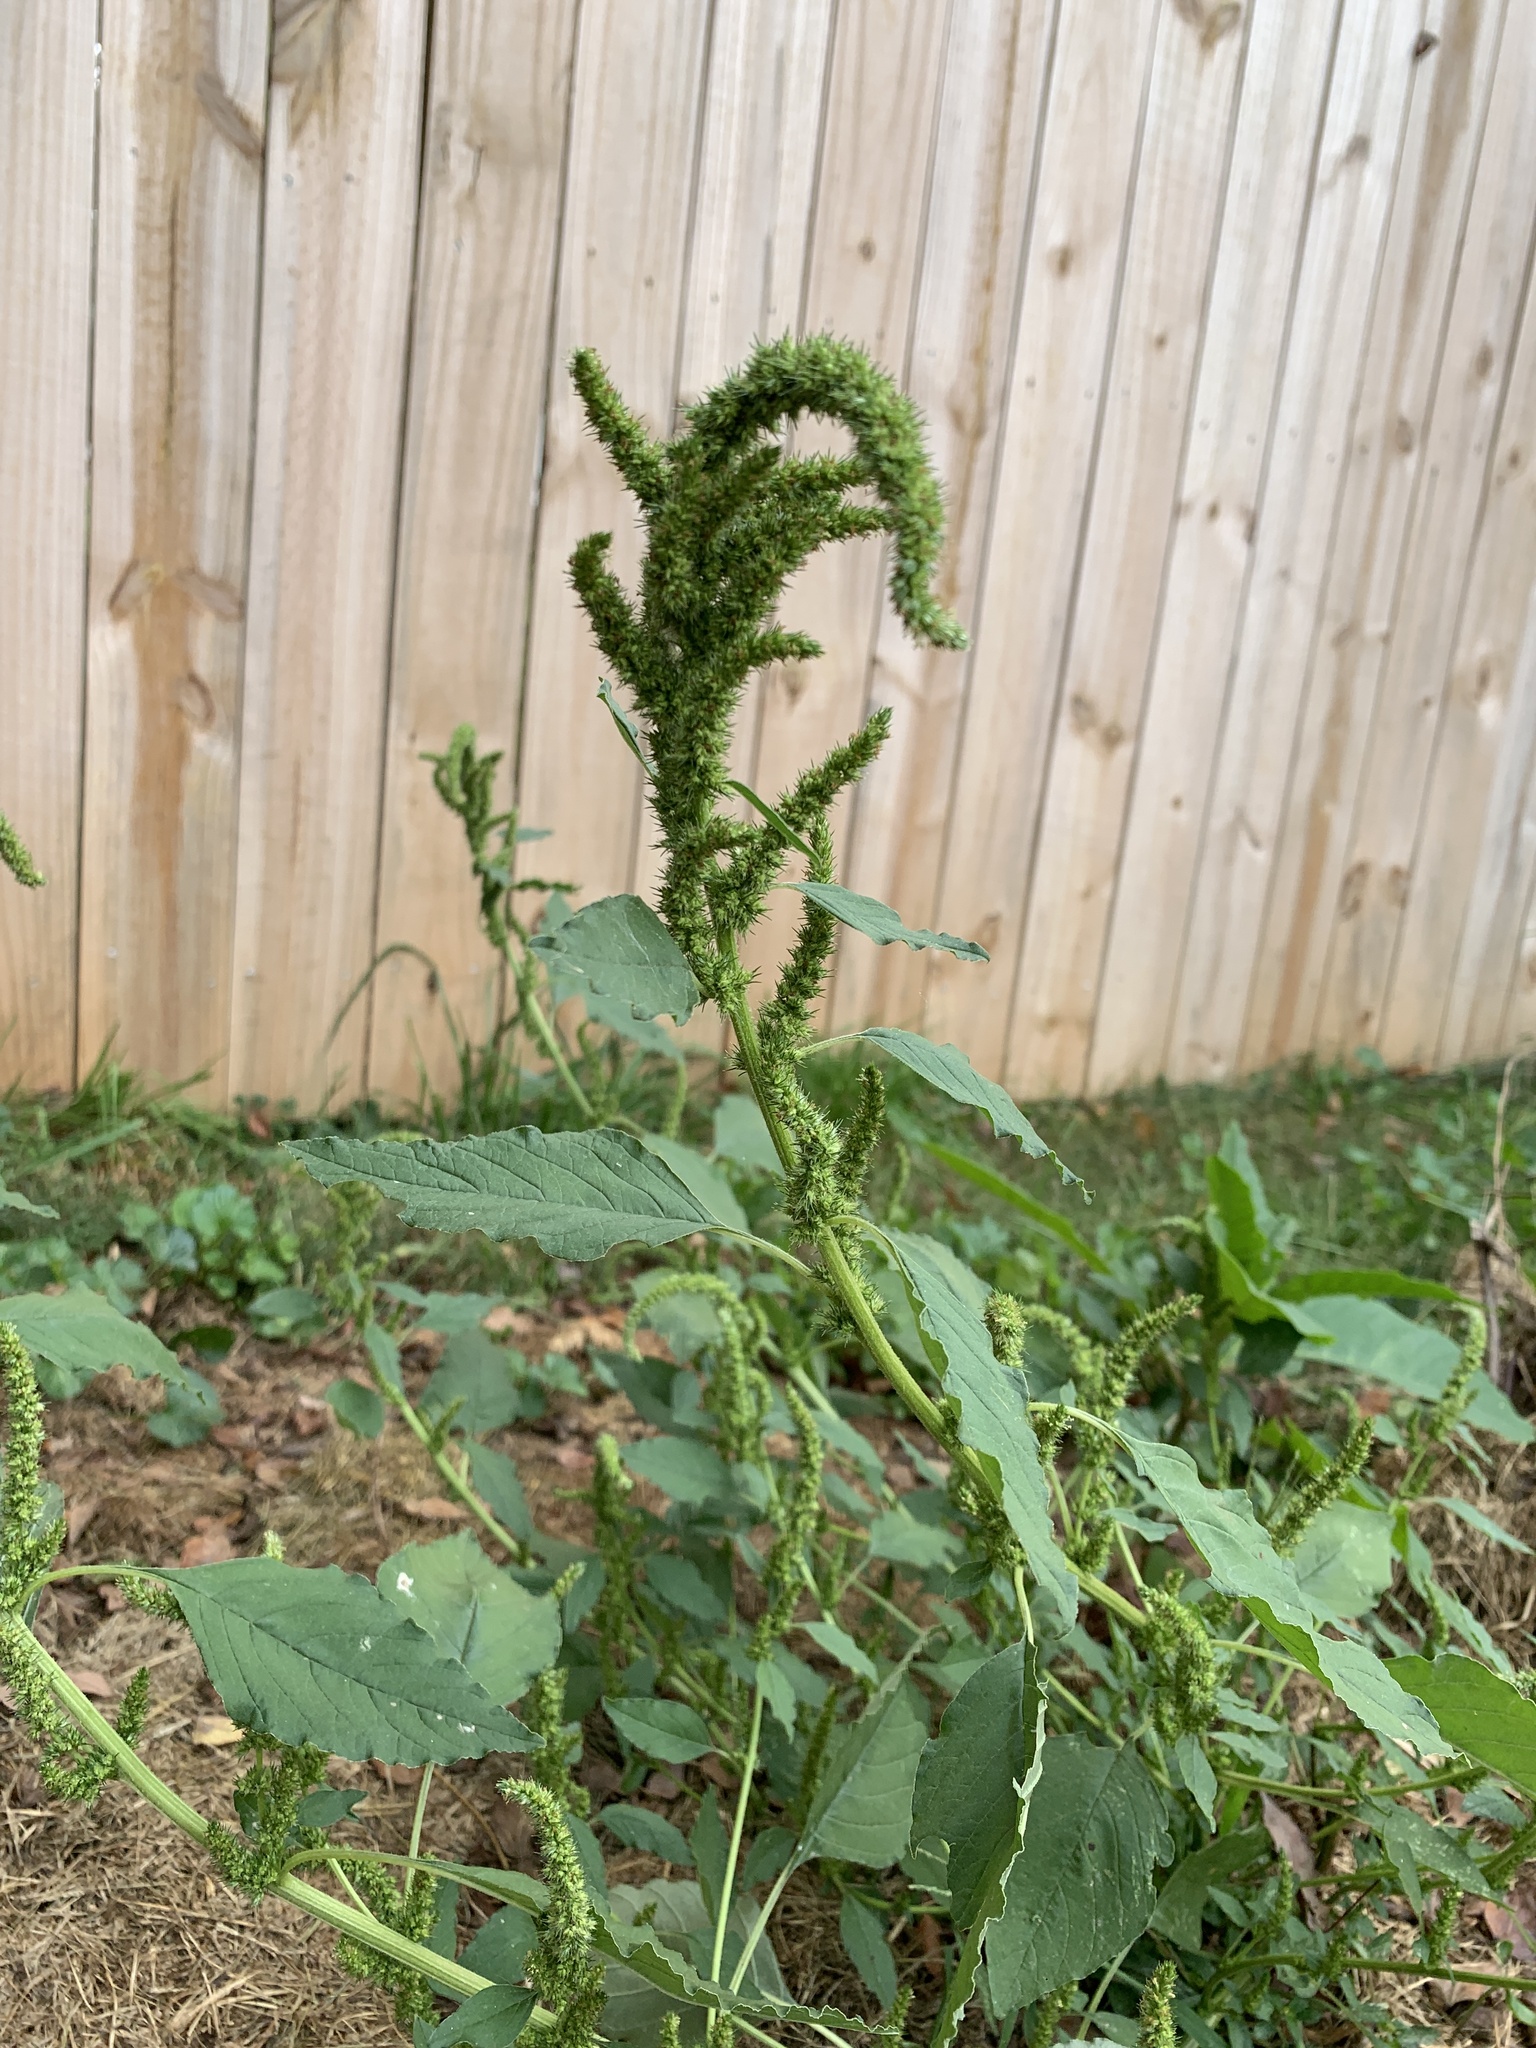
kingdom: Plantae
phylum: Tracheophyta
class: Magnoliopsida
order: Caryophyllales
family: Amaranthaceae
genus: Amaranthus
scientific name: Amaranthus retroflexus
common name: Redroot amaranth
